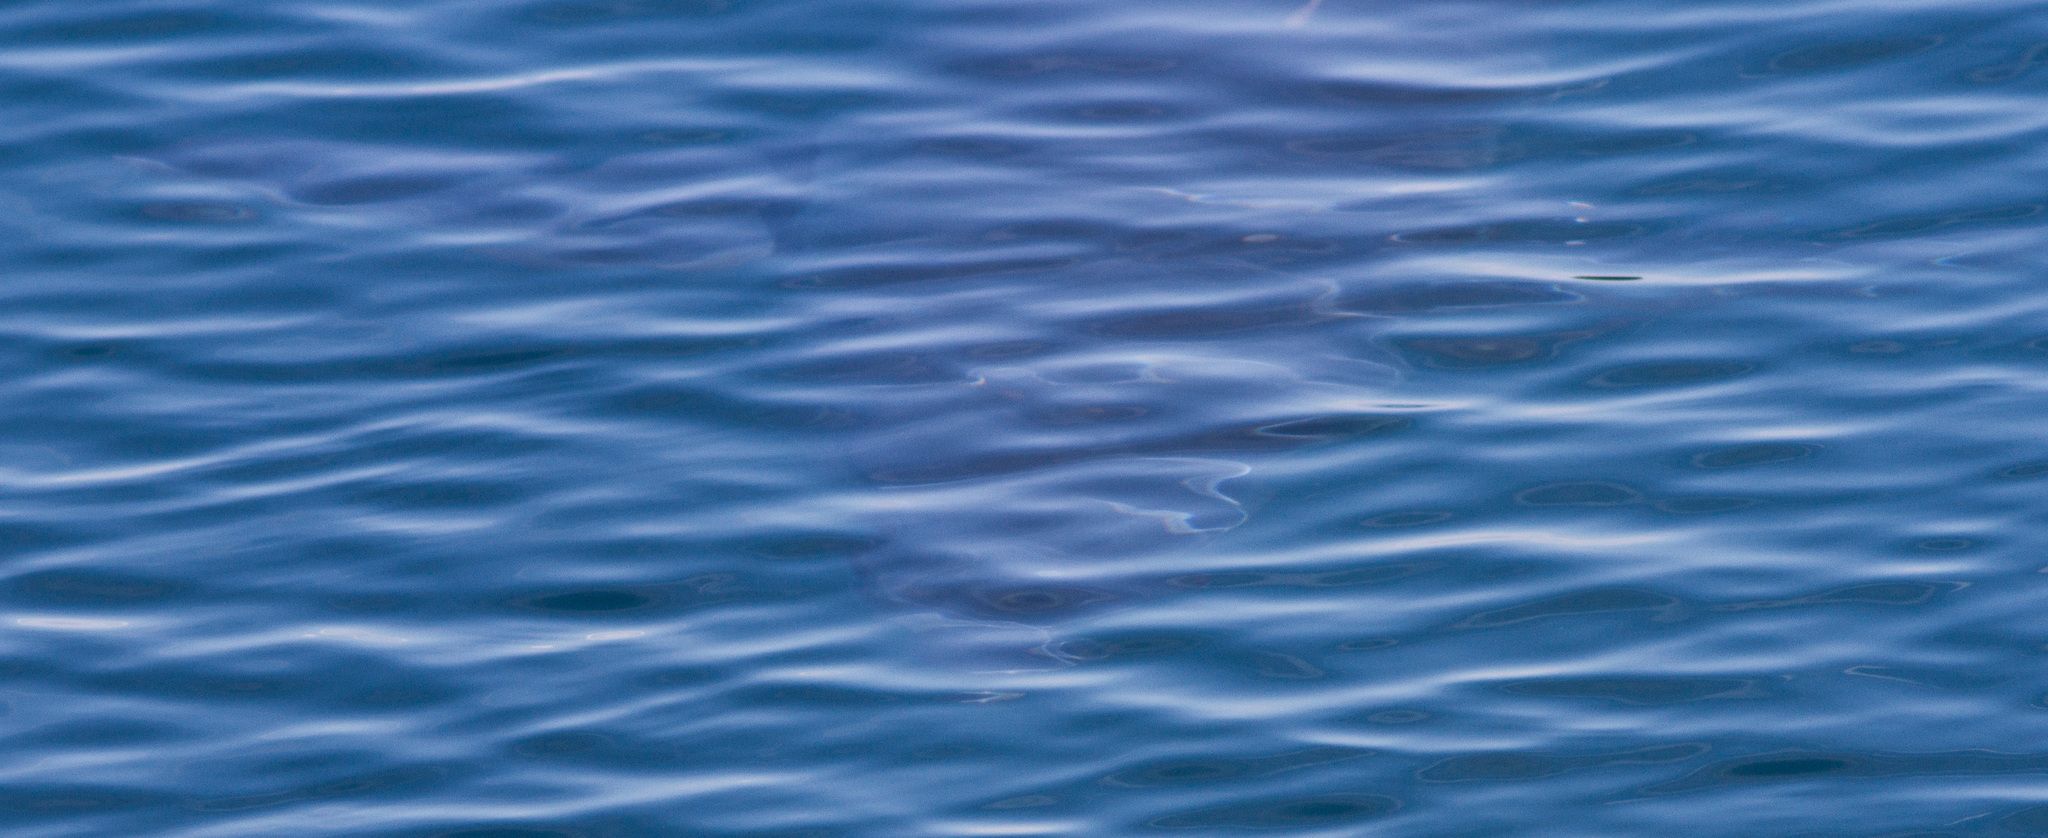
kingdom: Animalia
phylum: Chordata
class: Elasmobranchii
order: Lamniformes
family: Lamnidae
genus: Isurus
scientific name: Isurus oxyrinchus
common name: Shortfin mako
